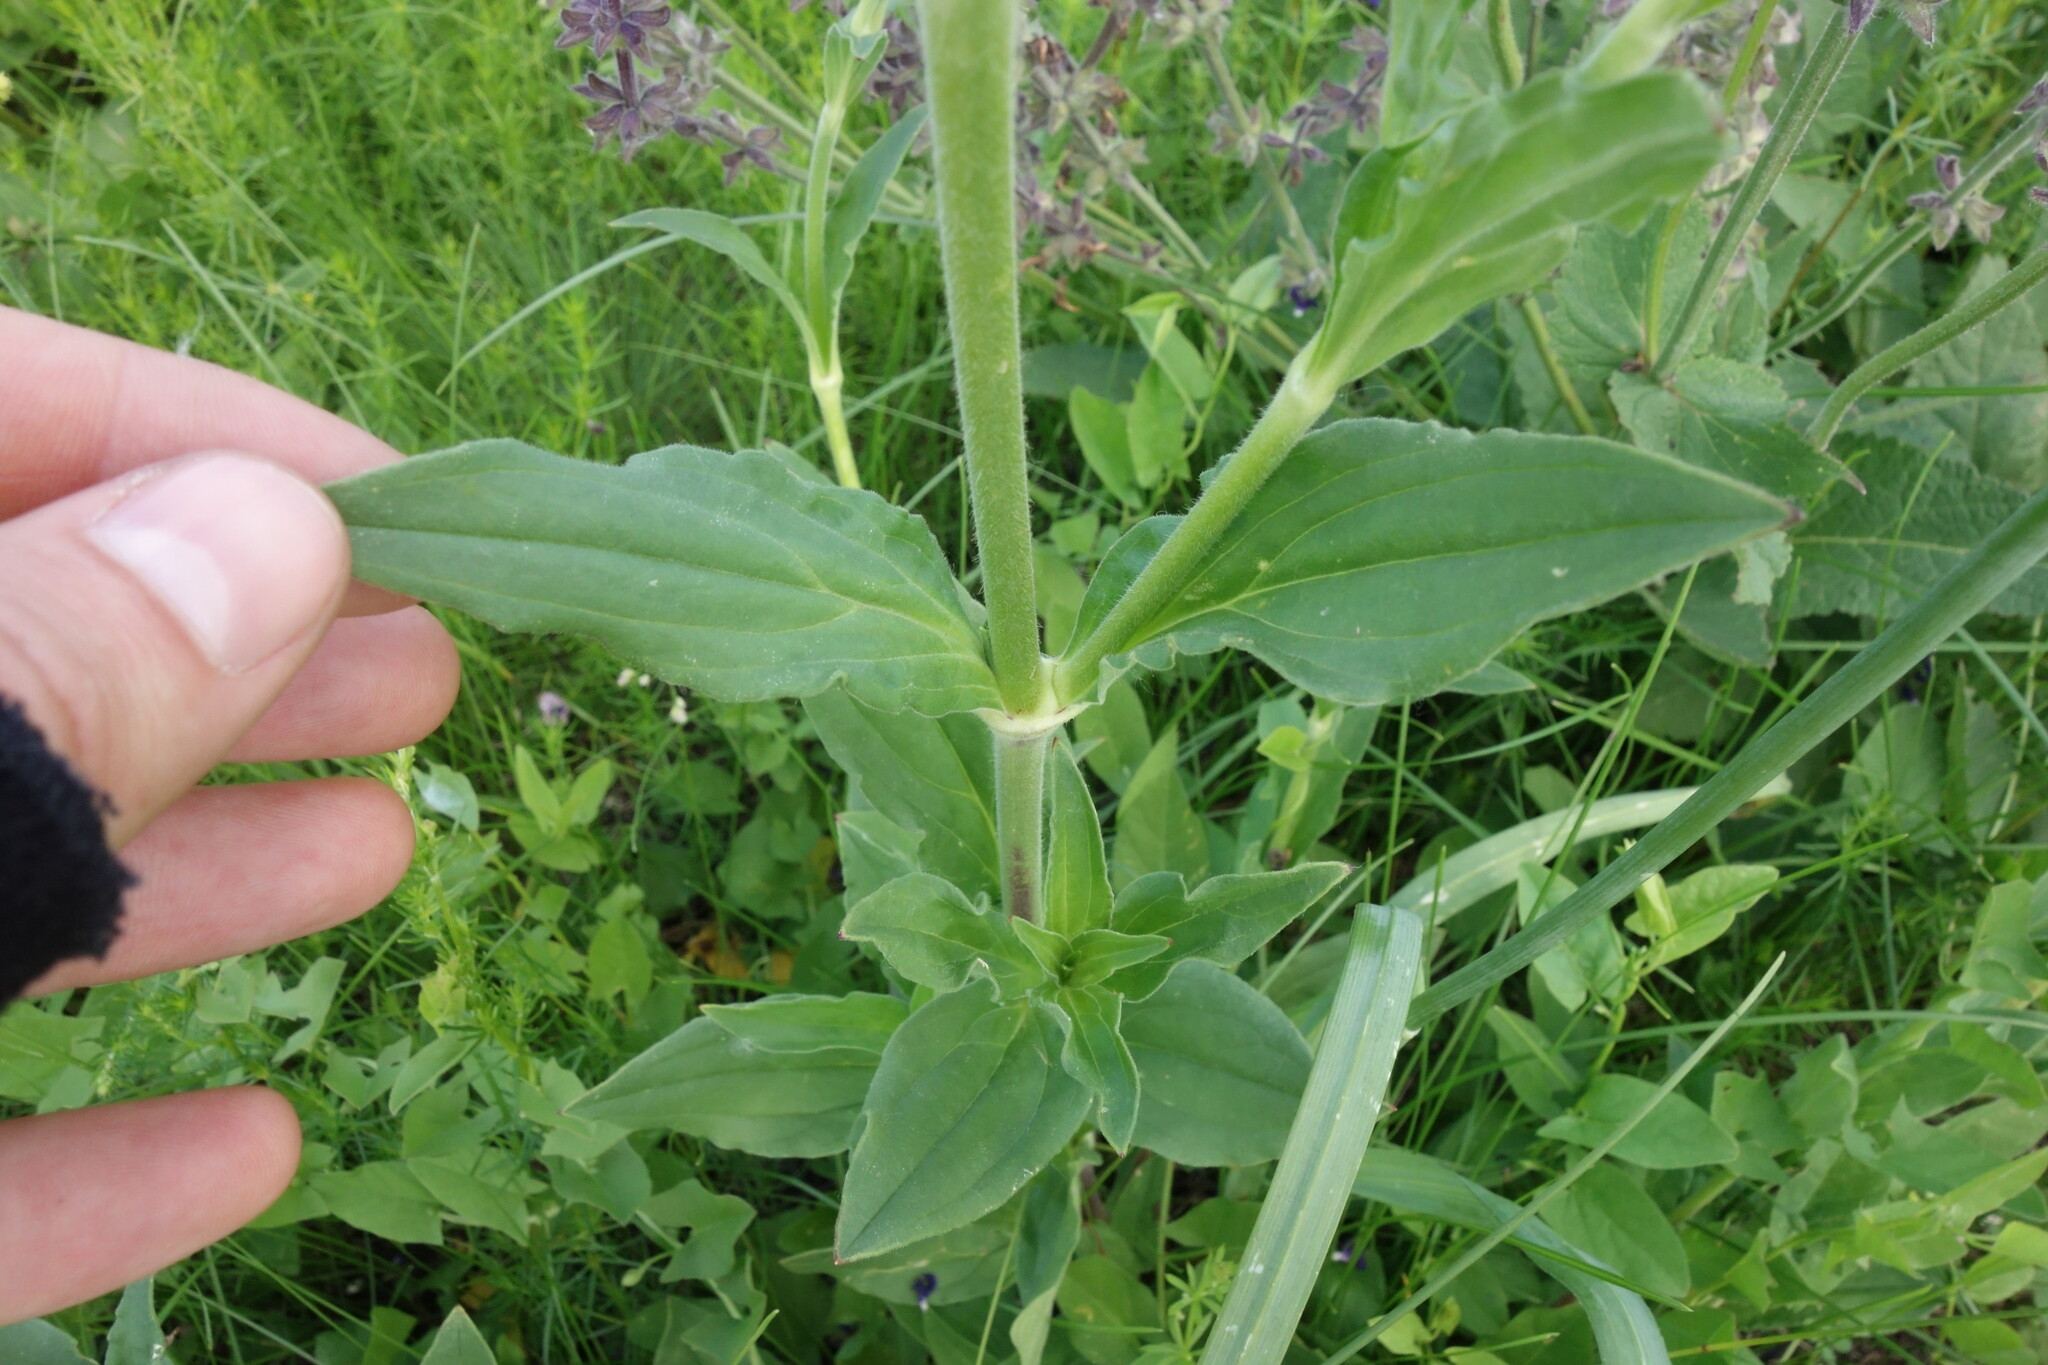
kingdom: Plantae
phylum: Tracheophyta
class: Magnoliopsida
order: Caryophyllales
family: Caryophyllaceae
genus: Silene
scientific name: Silene latifolia
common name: White campion
